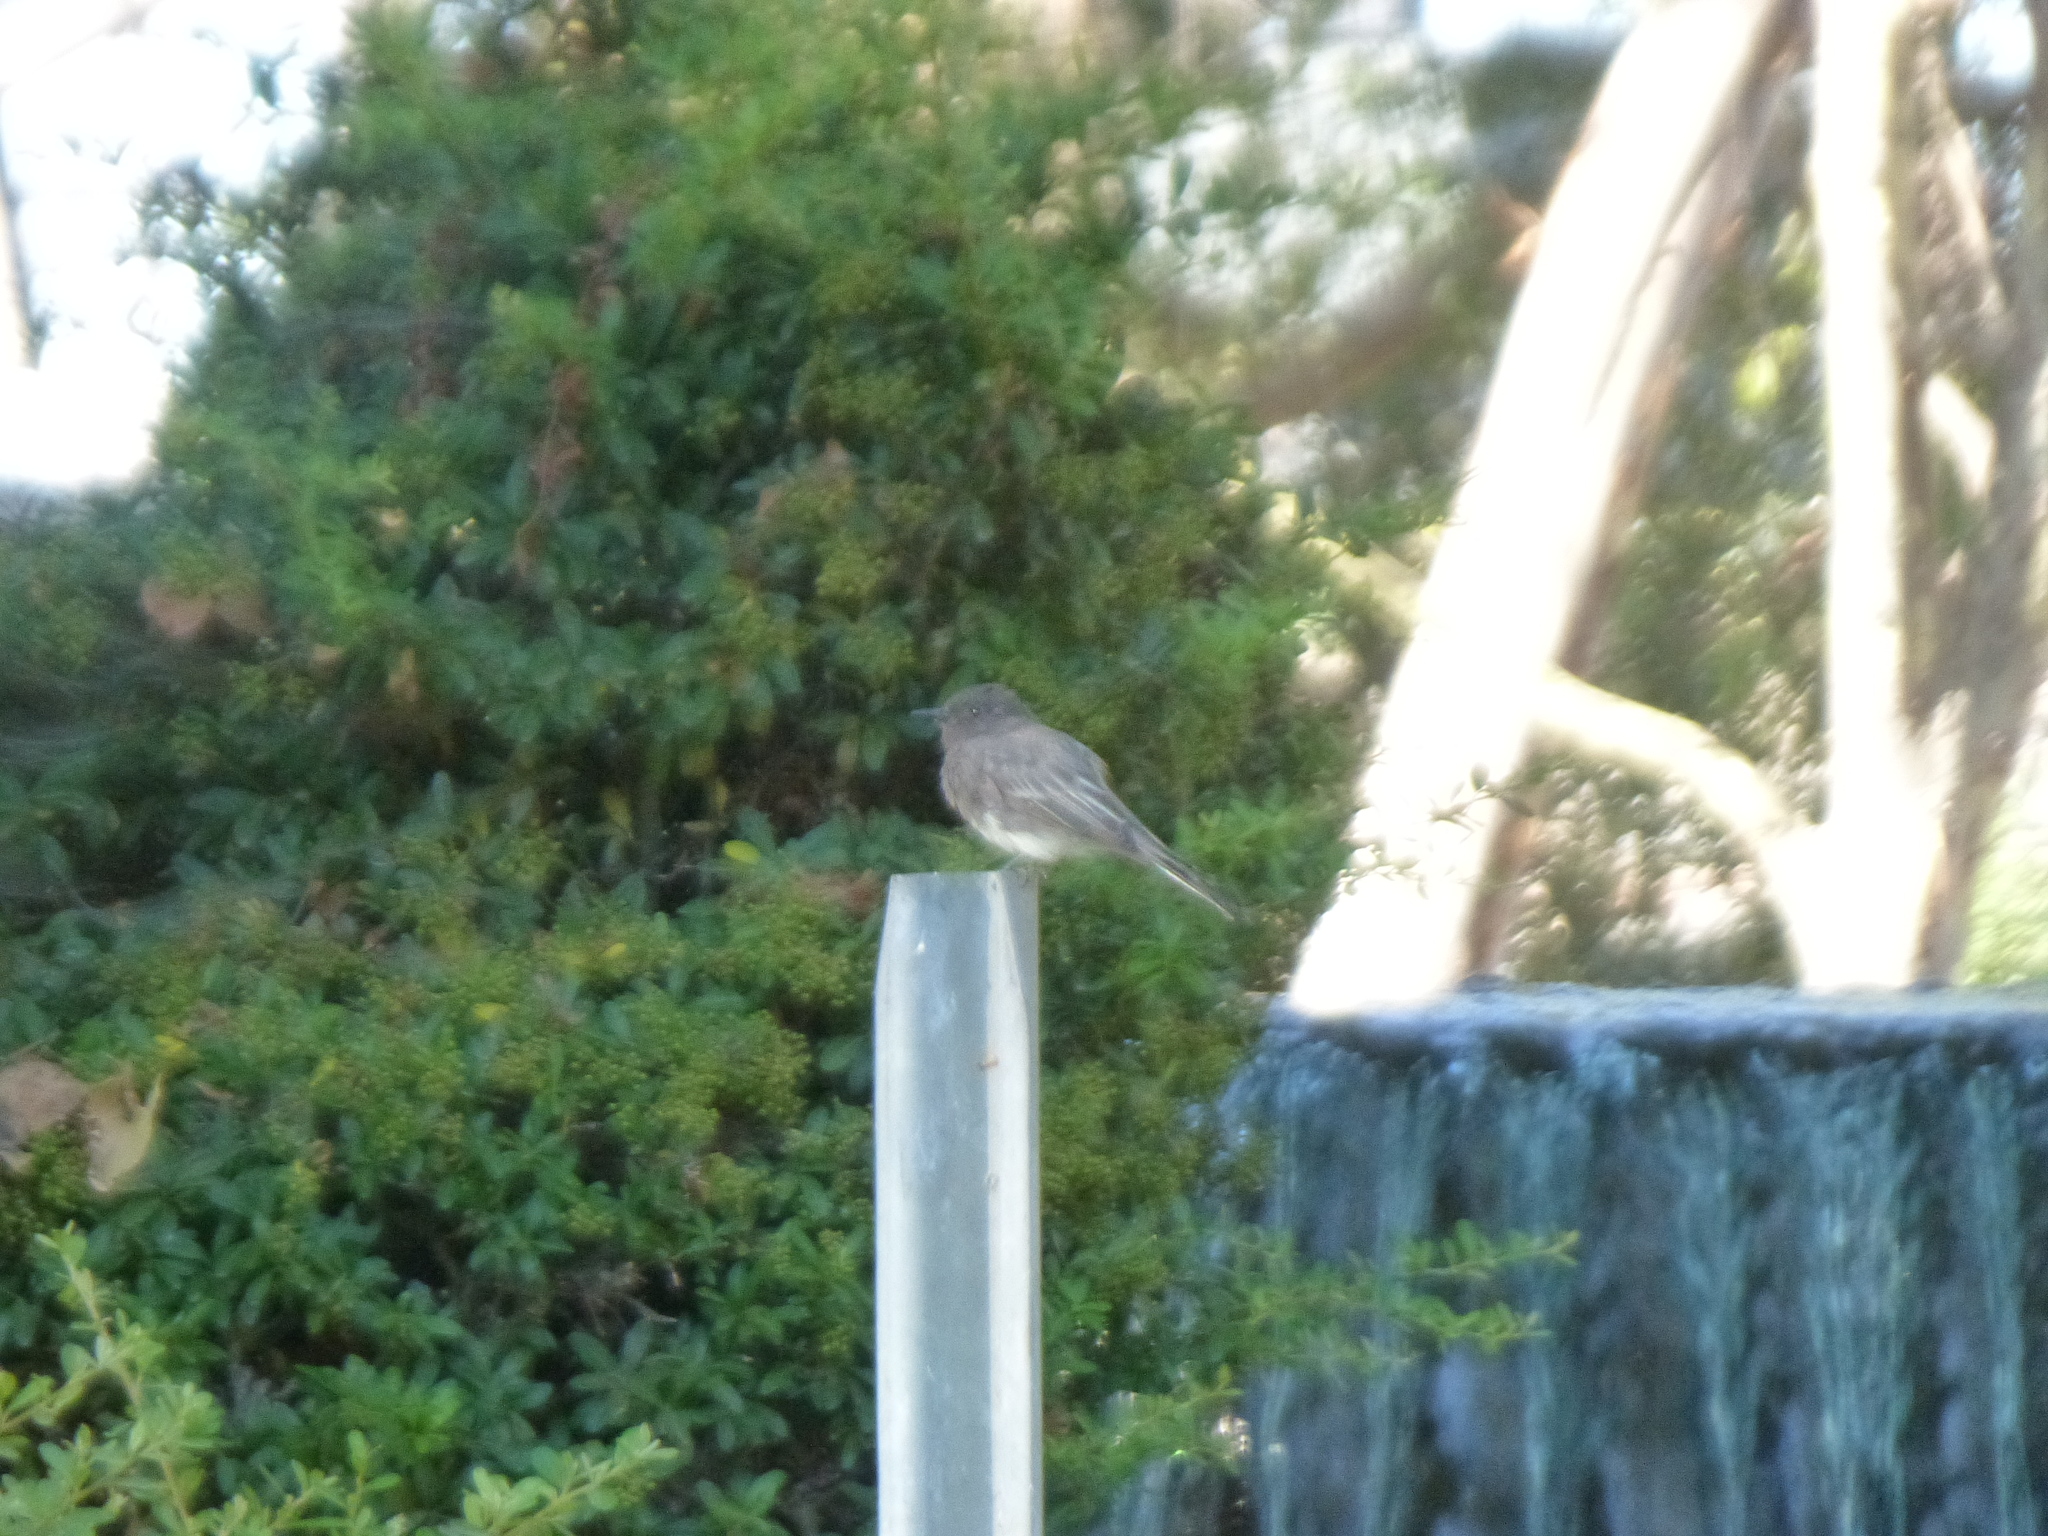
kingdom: Animalia
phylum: Chordata
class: Aves
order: Passeriformes
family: Tyrannidae
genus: Sayornis
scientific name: Sayornis nigricans
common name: Black phoebe
